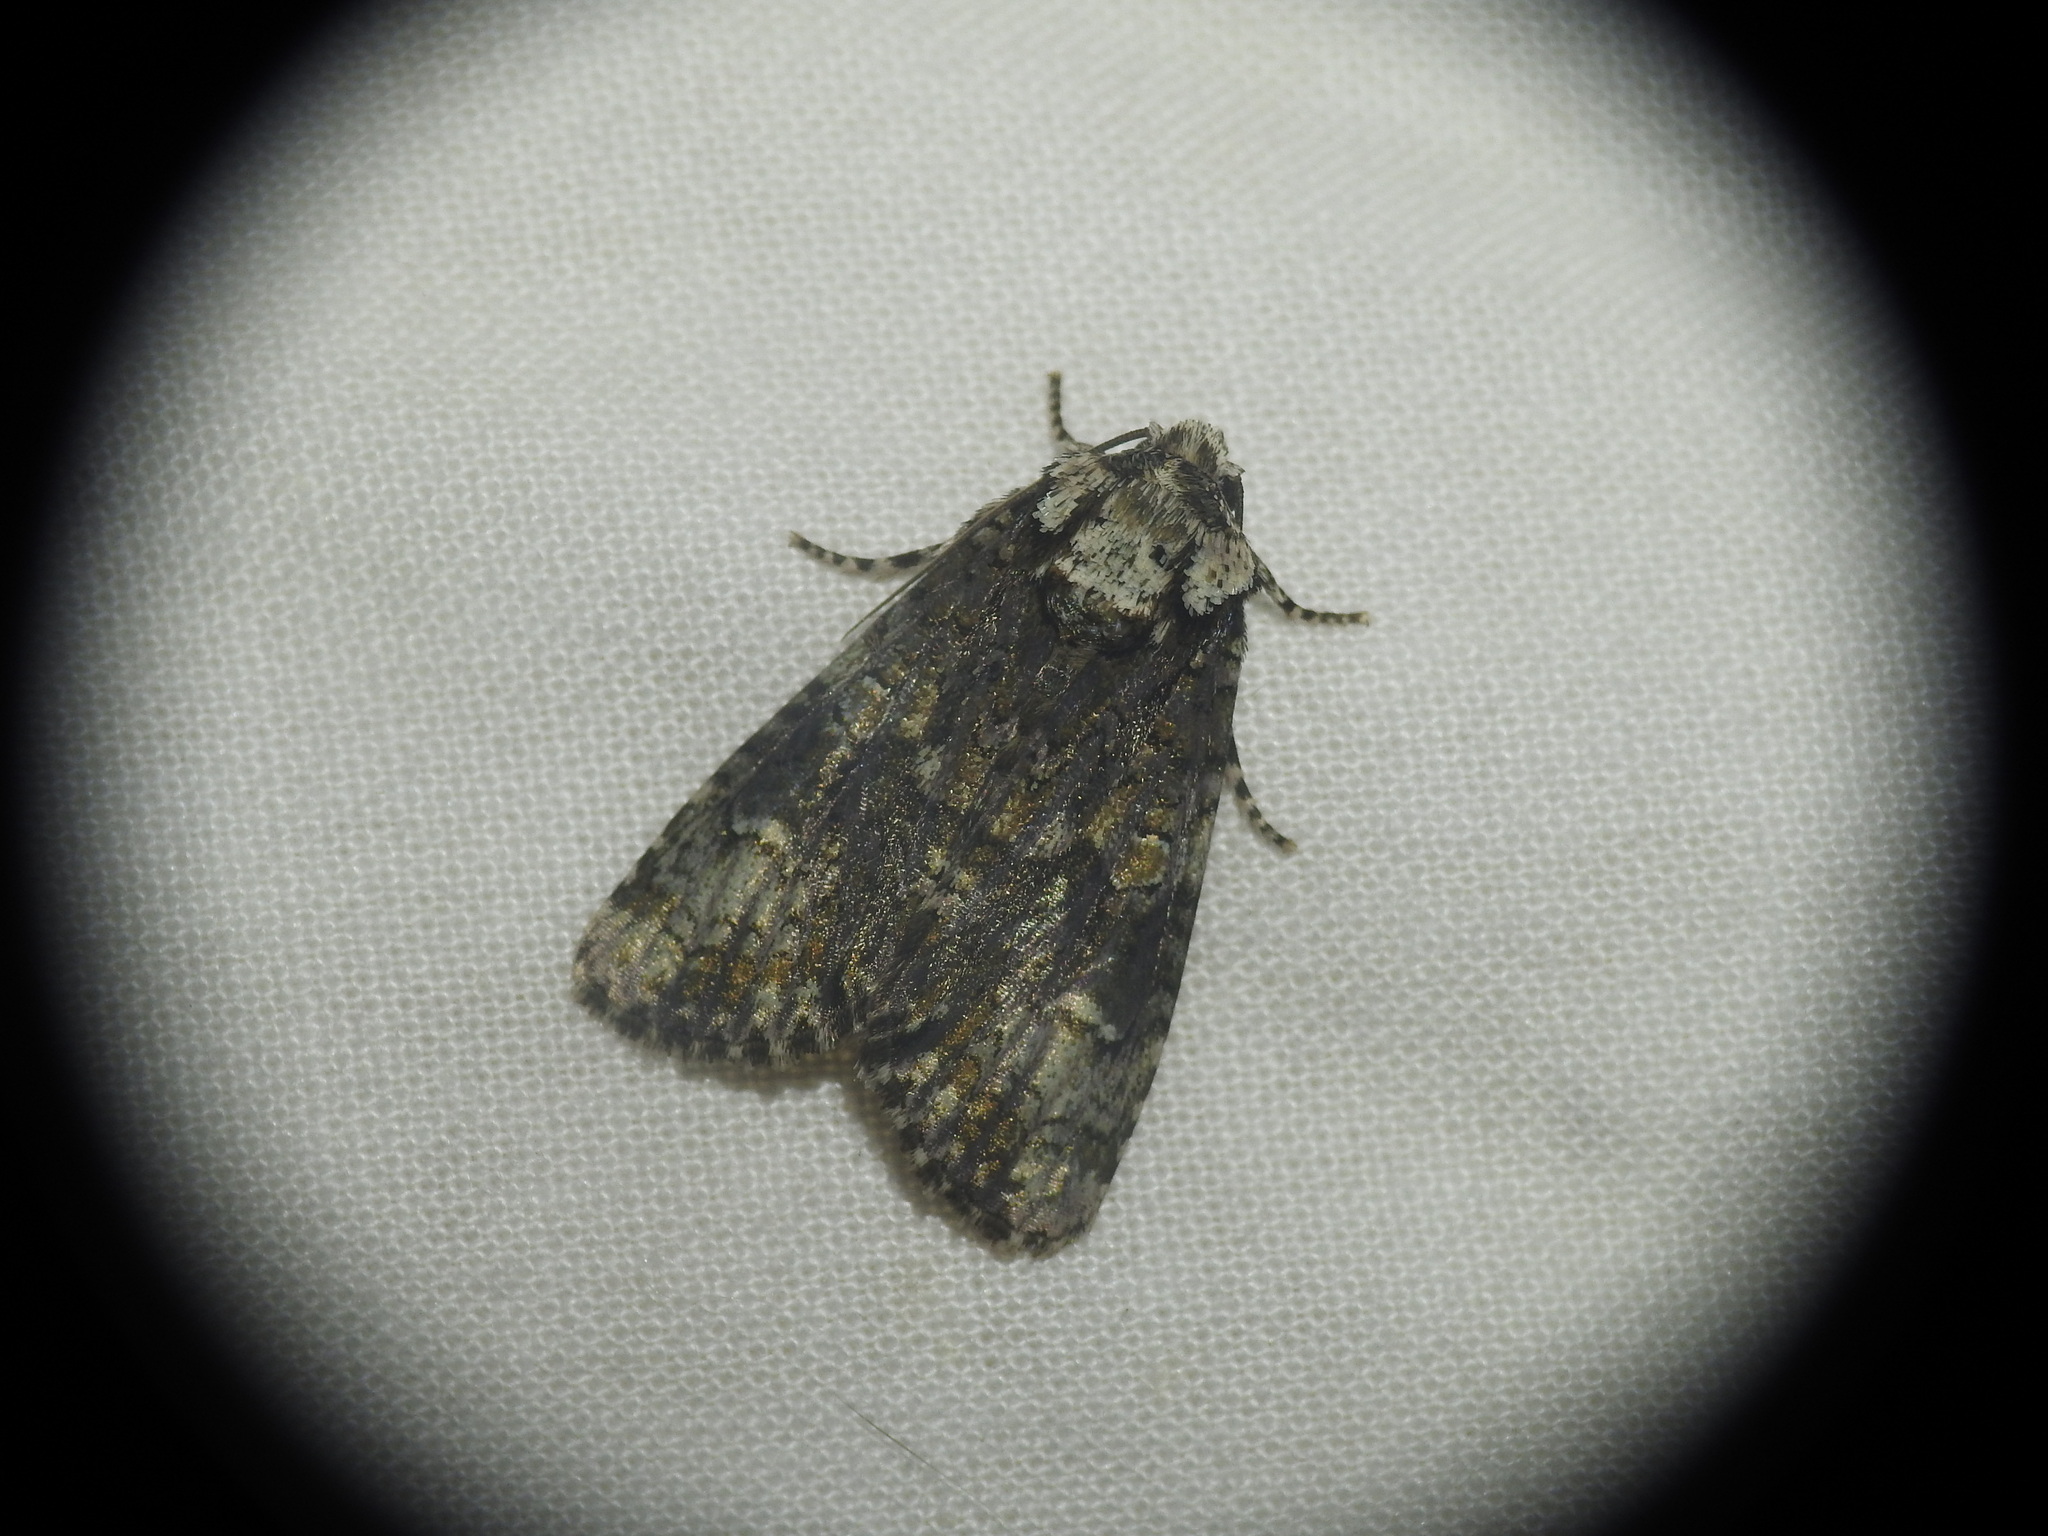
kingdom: Animalia
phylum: Arthropoda
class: Insecta
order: Lepidoptera
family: Noctuidae
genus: Craniophora
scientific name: Craniophora ligustri
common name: Coronet
